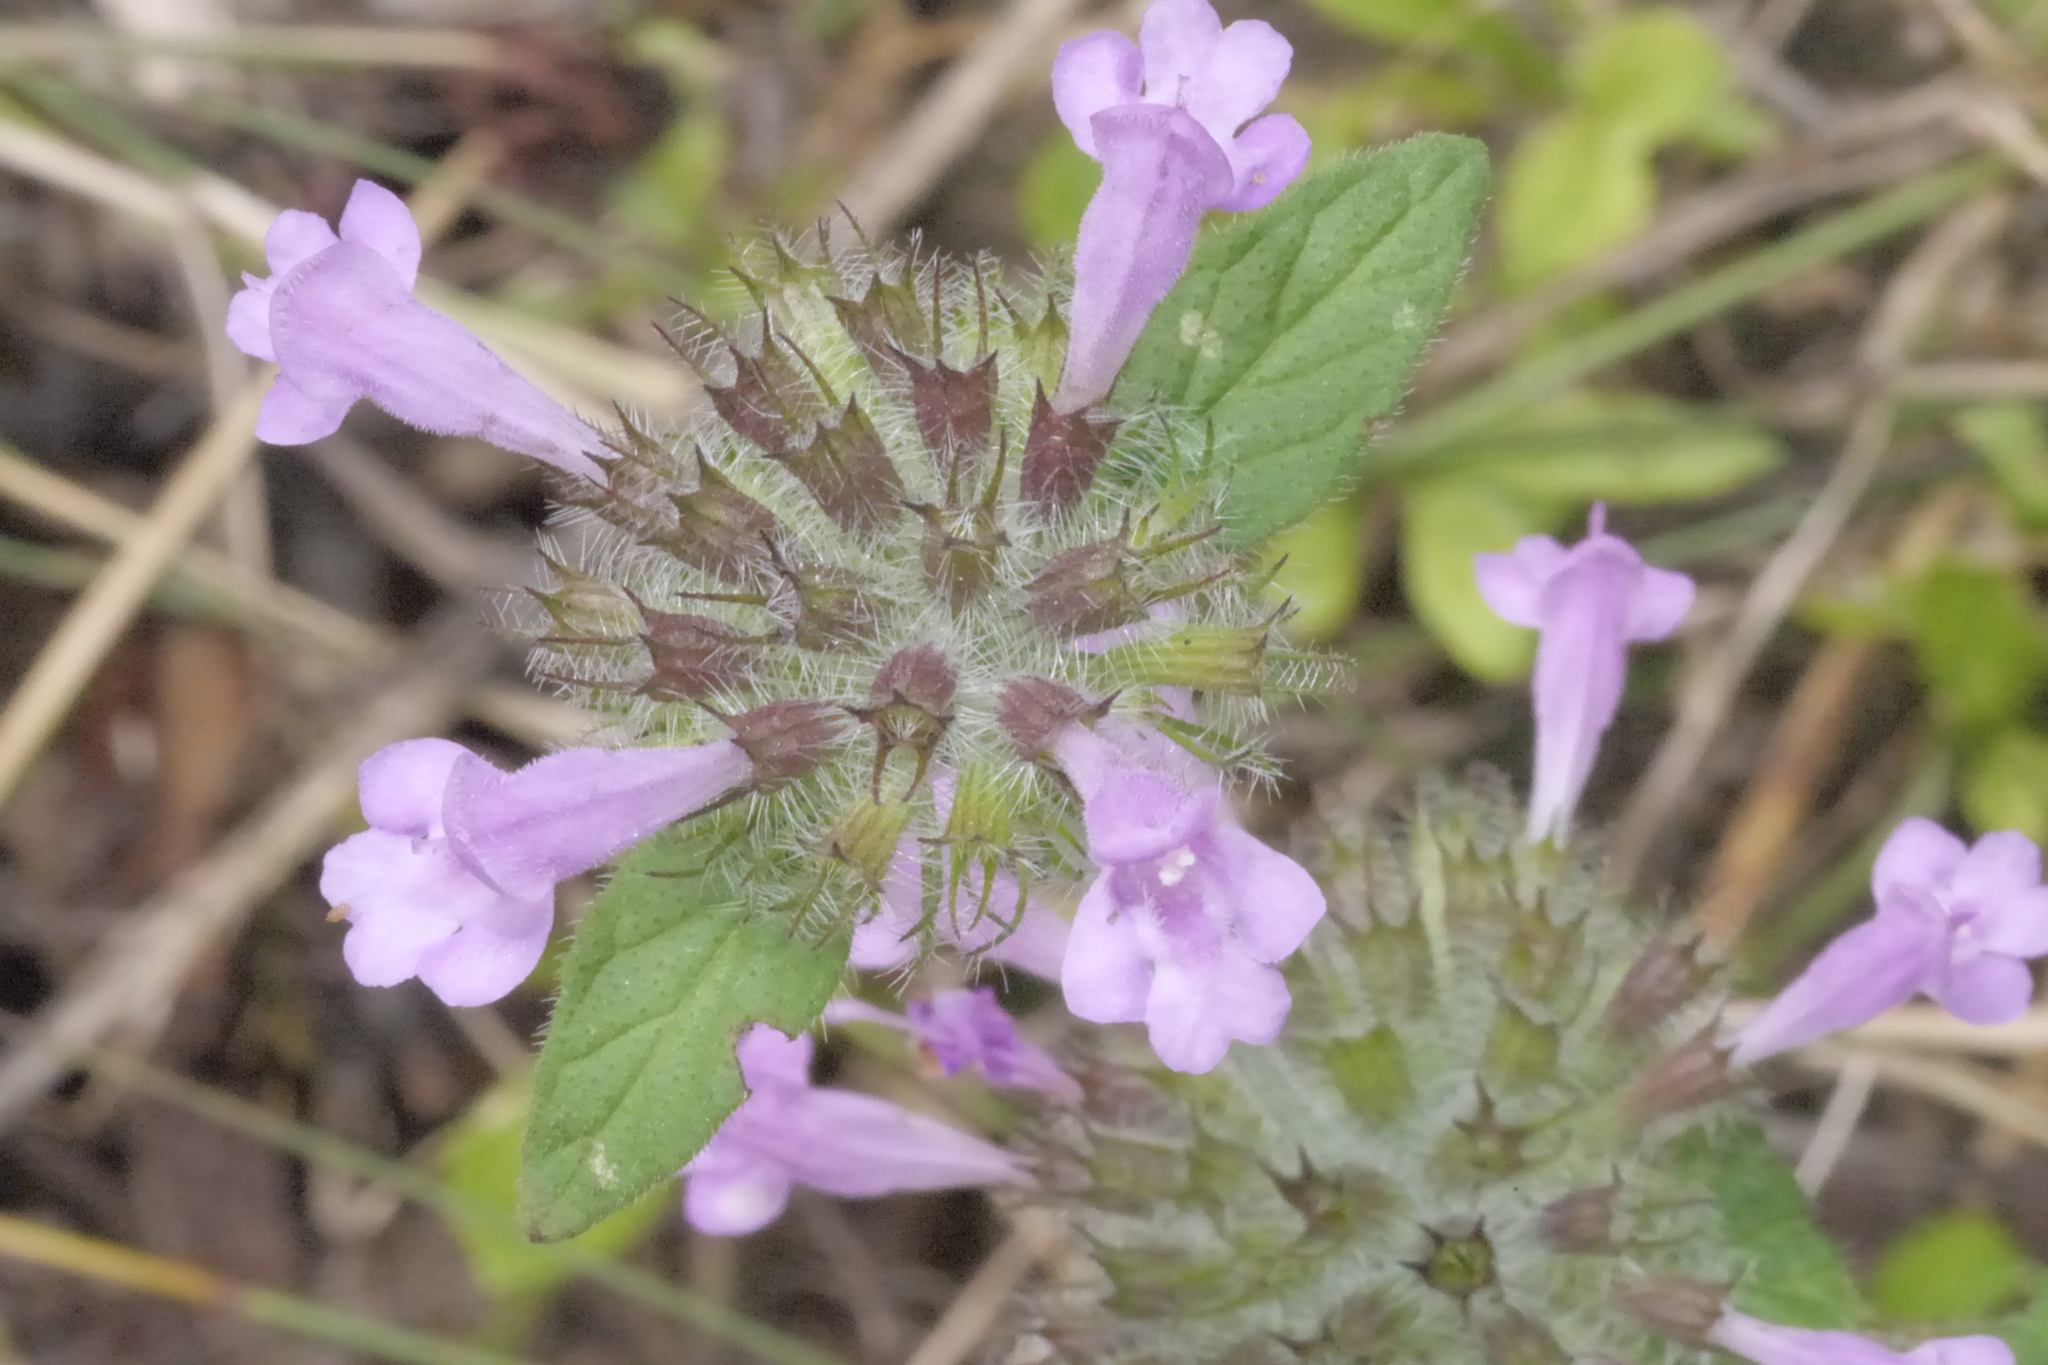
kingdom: Plantae
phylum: Tracheophyta
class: Magnoliopsida
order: Lamiales
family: Lamiaceae
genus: Clinopodium
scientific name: Clinopodium vulgare
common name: Wild basil
